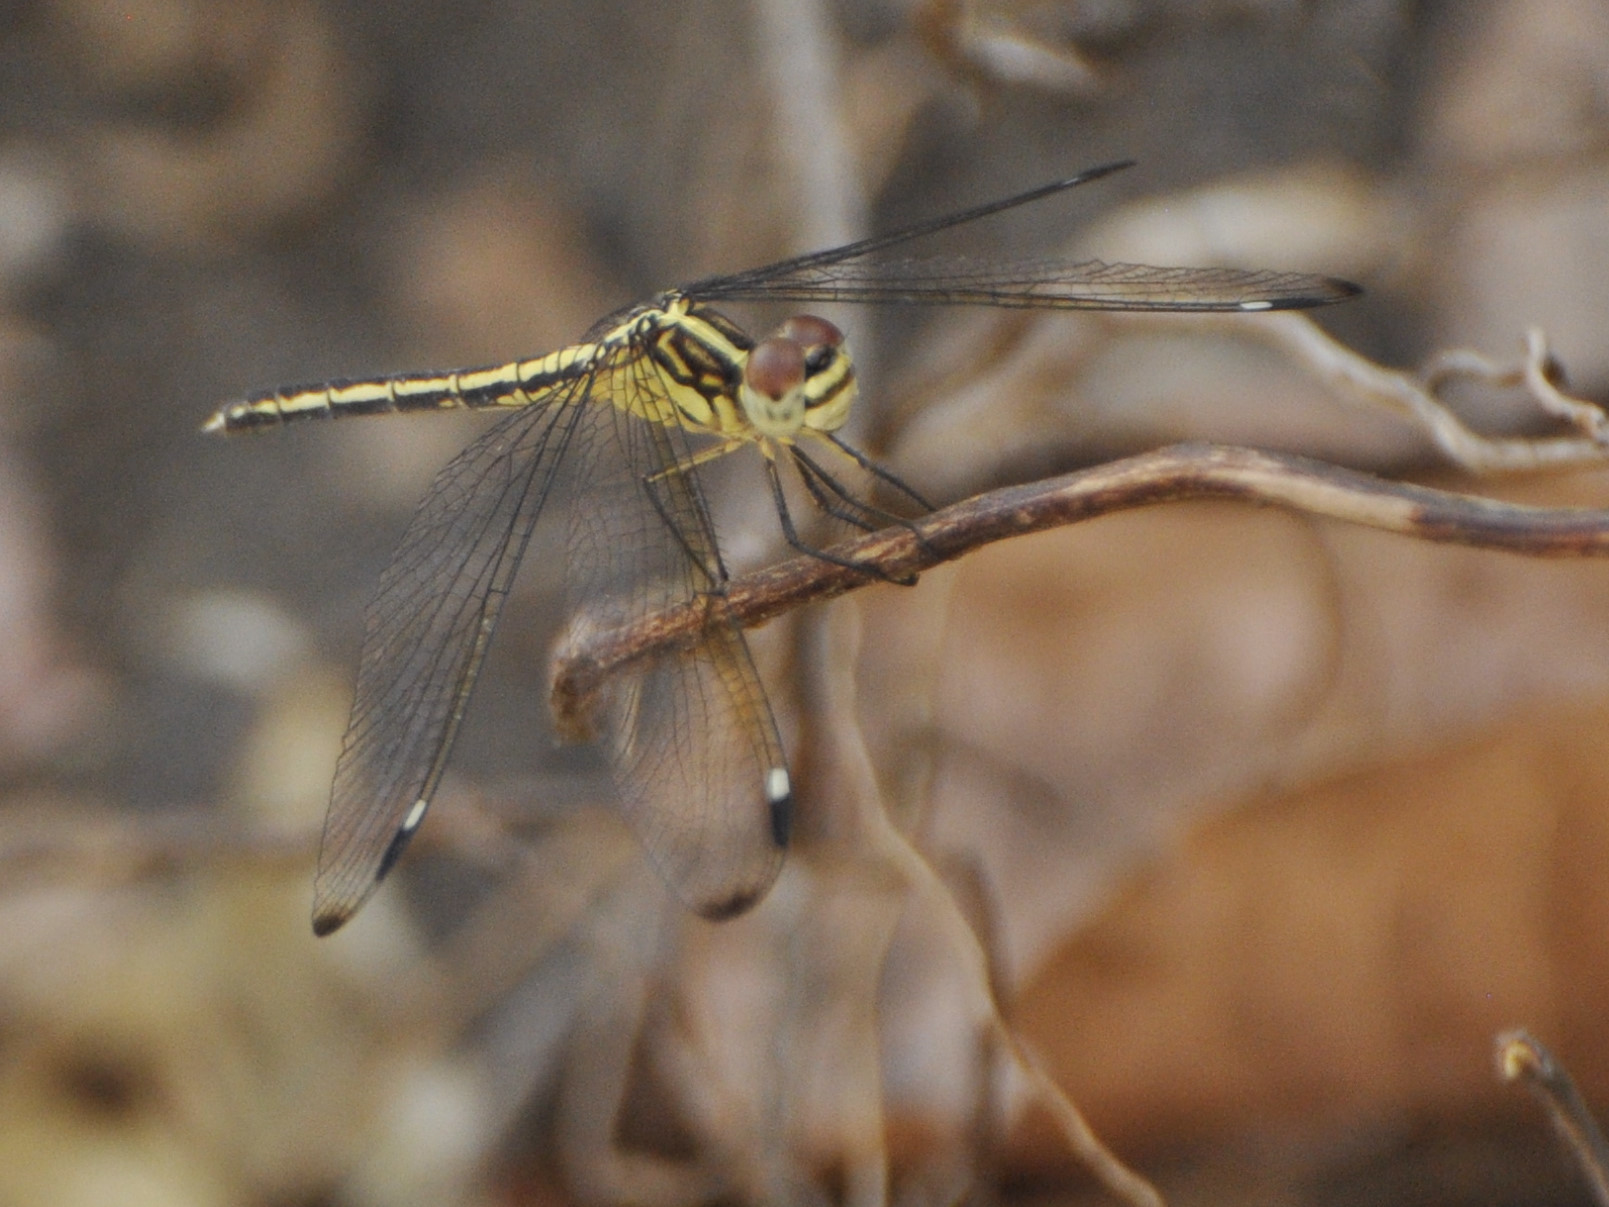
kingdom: Animalia
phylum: Arthropoda
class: Insecta
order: Odonata
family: Libellulidae
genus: Hemistigma
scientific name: Hemistigma albipunctum
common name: African pied-spot
